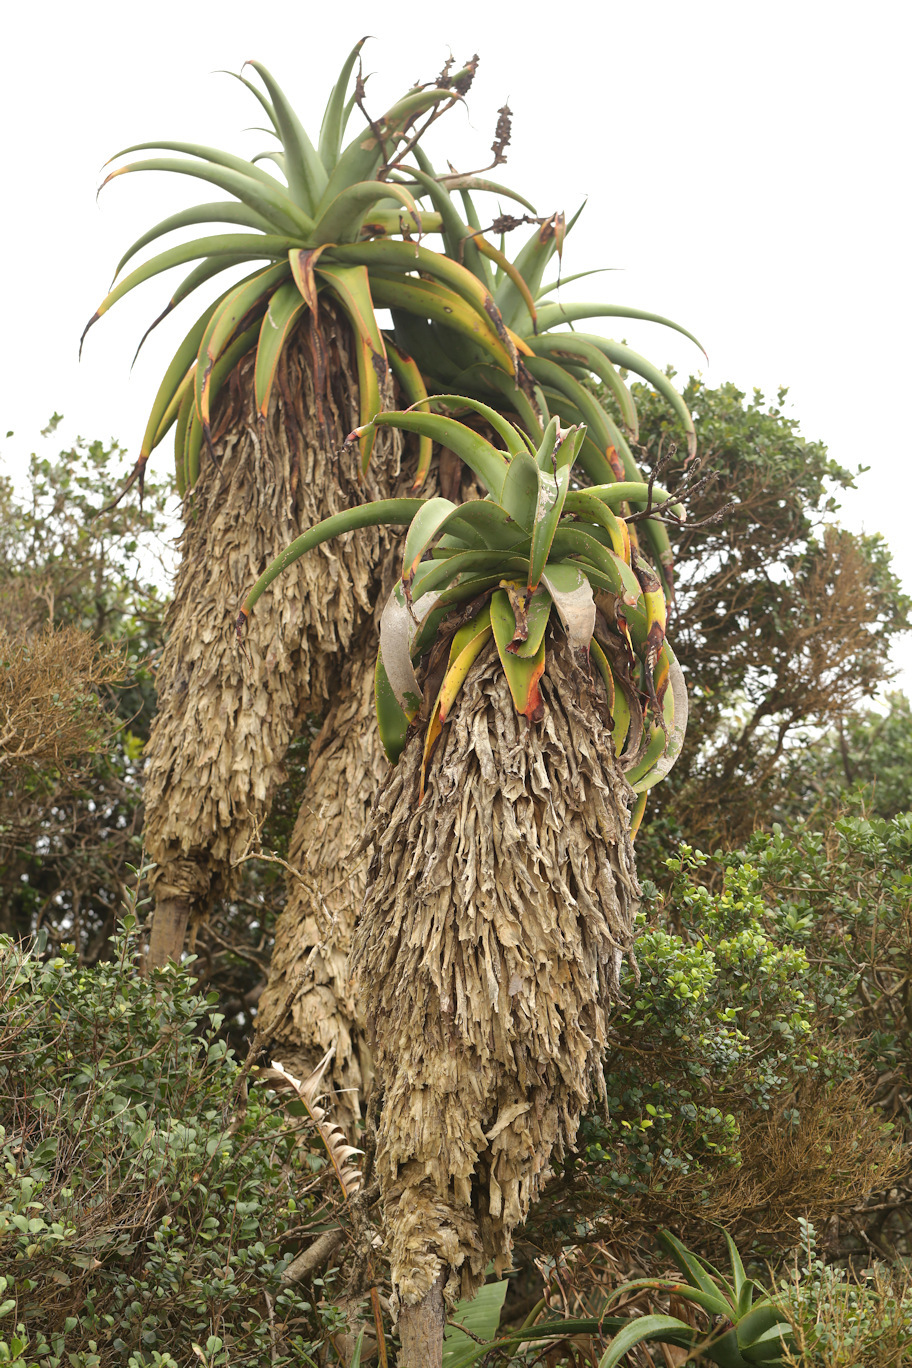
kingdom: Plantae
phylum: Tracheophyta
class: Liliopsida
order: Asparagales
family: Asphodelaceae
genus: Aloe
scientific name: Aloe thraskii
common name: Coast aloe
